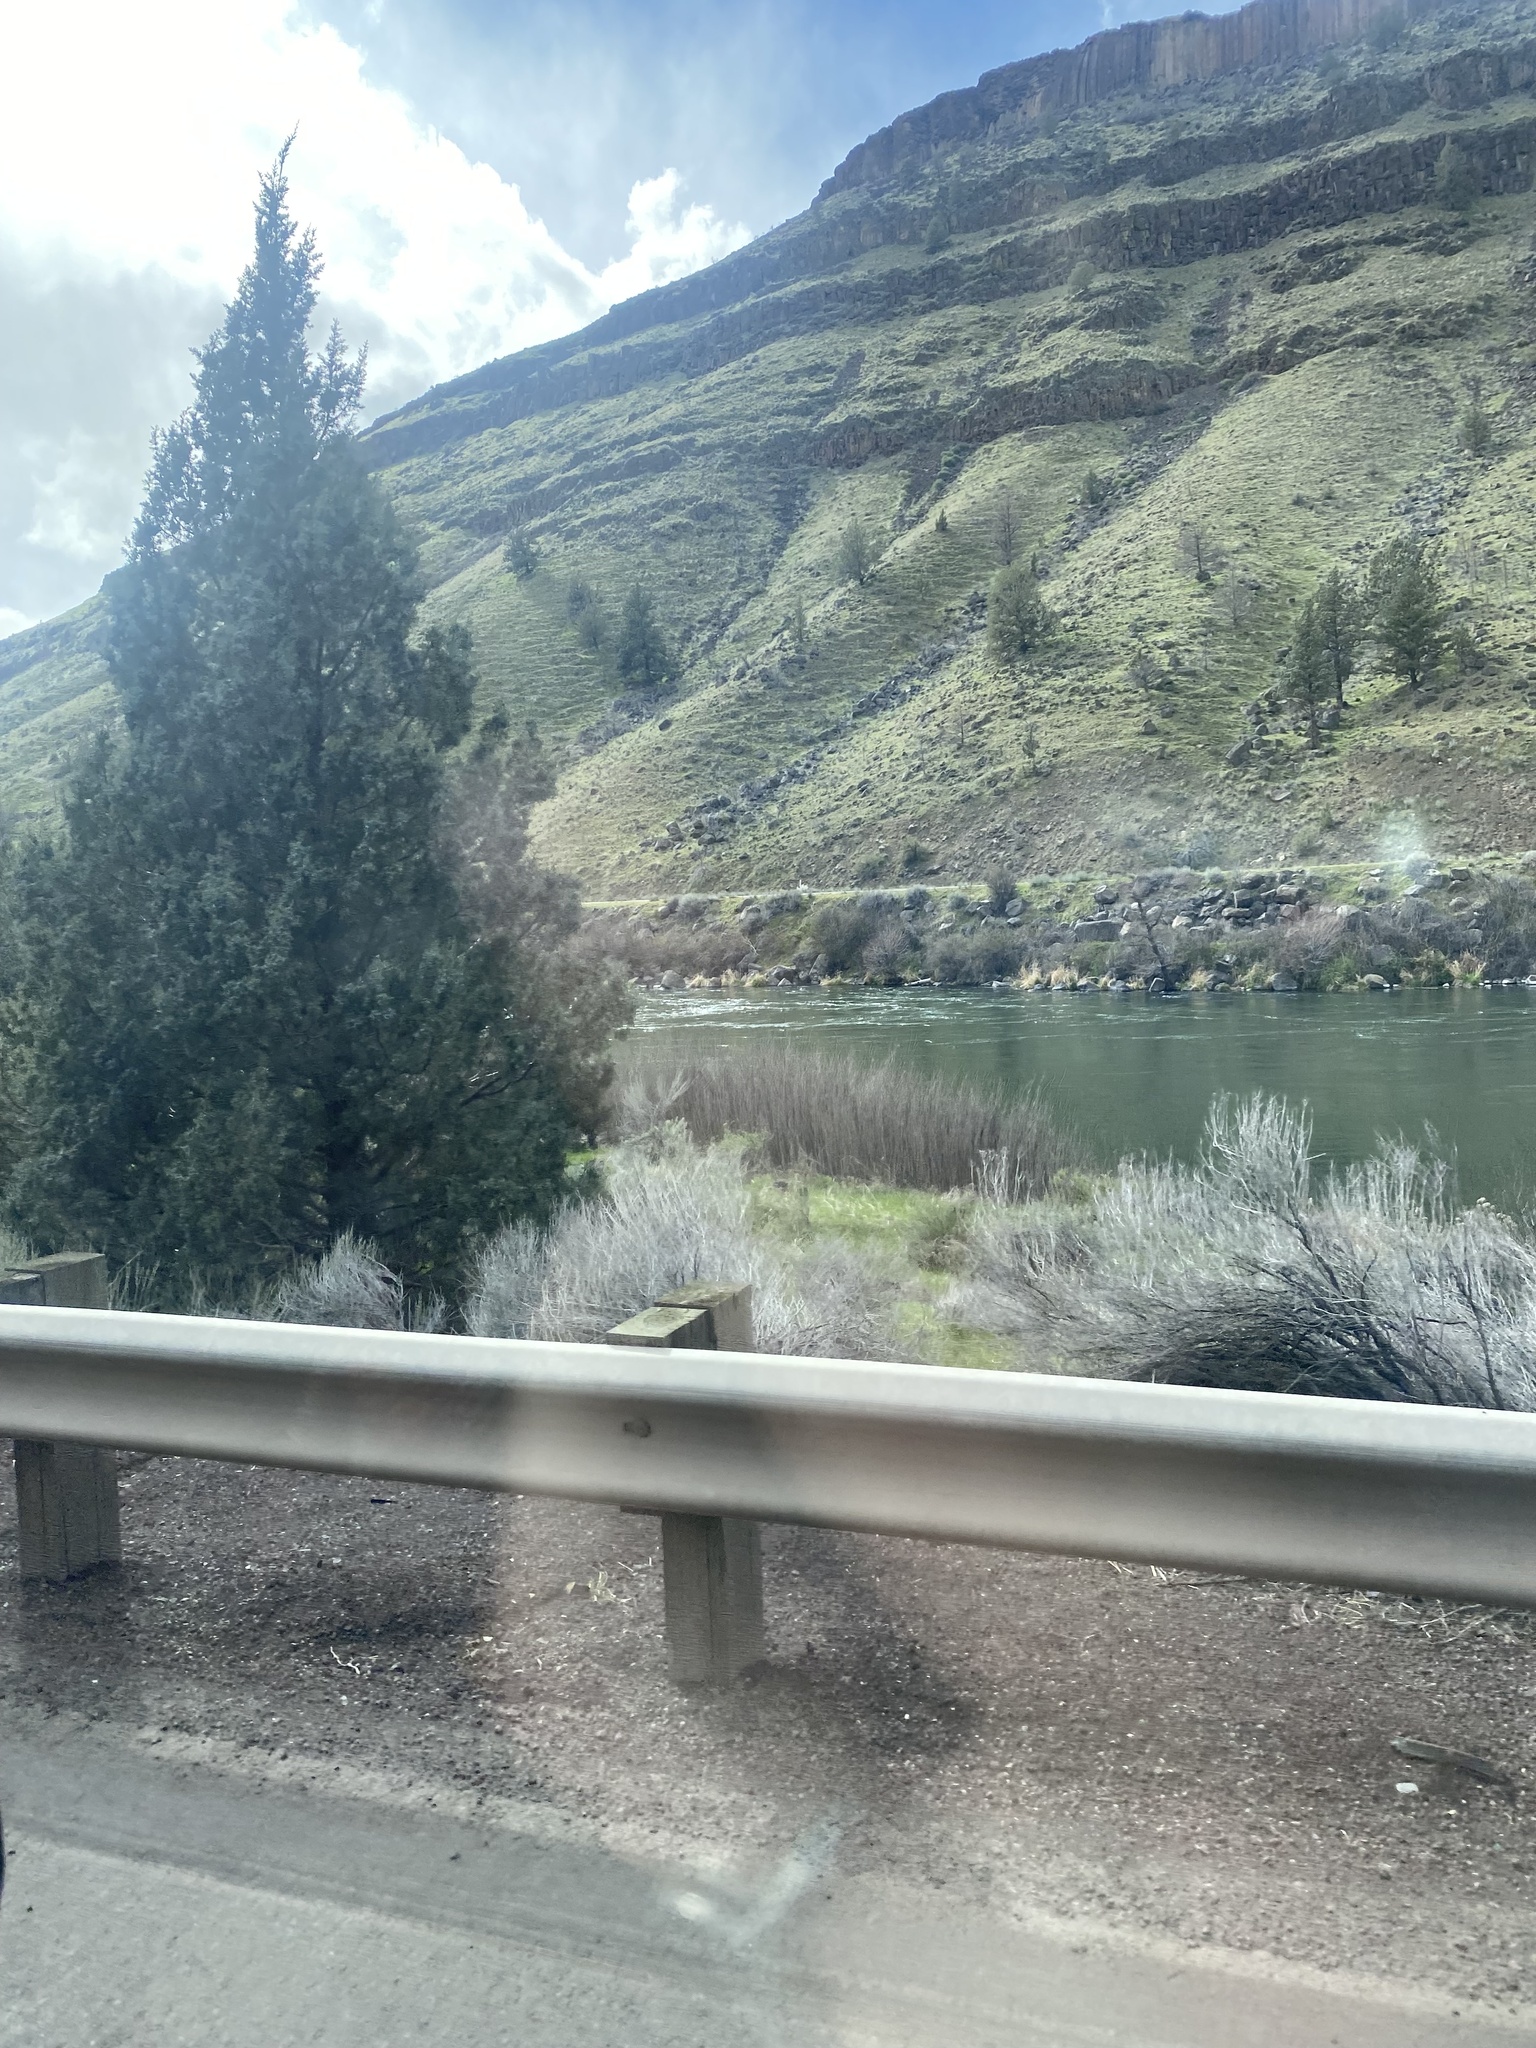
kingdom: Plantae
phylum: Tracheophyta
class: Pinopsida
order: Pinales
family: Cupressaceae
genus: Juniperus
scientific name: Juniperus occidentalis
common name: Western juniper
